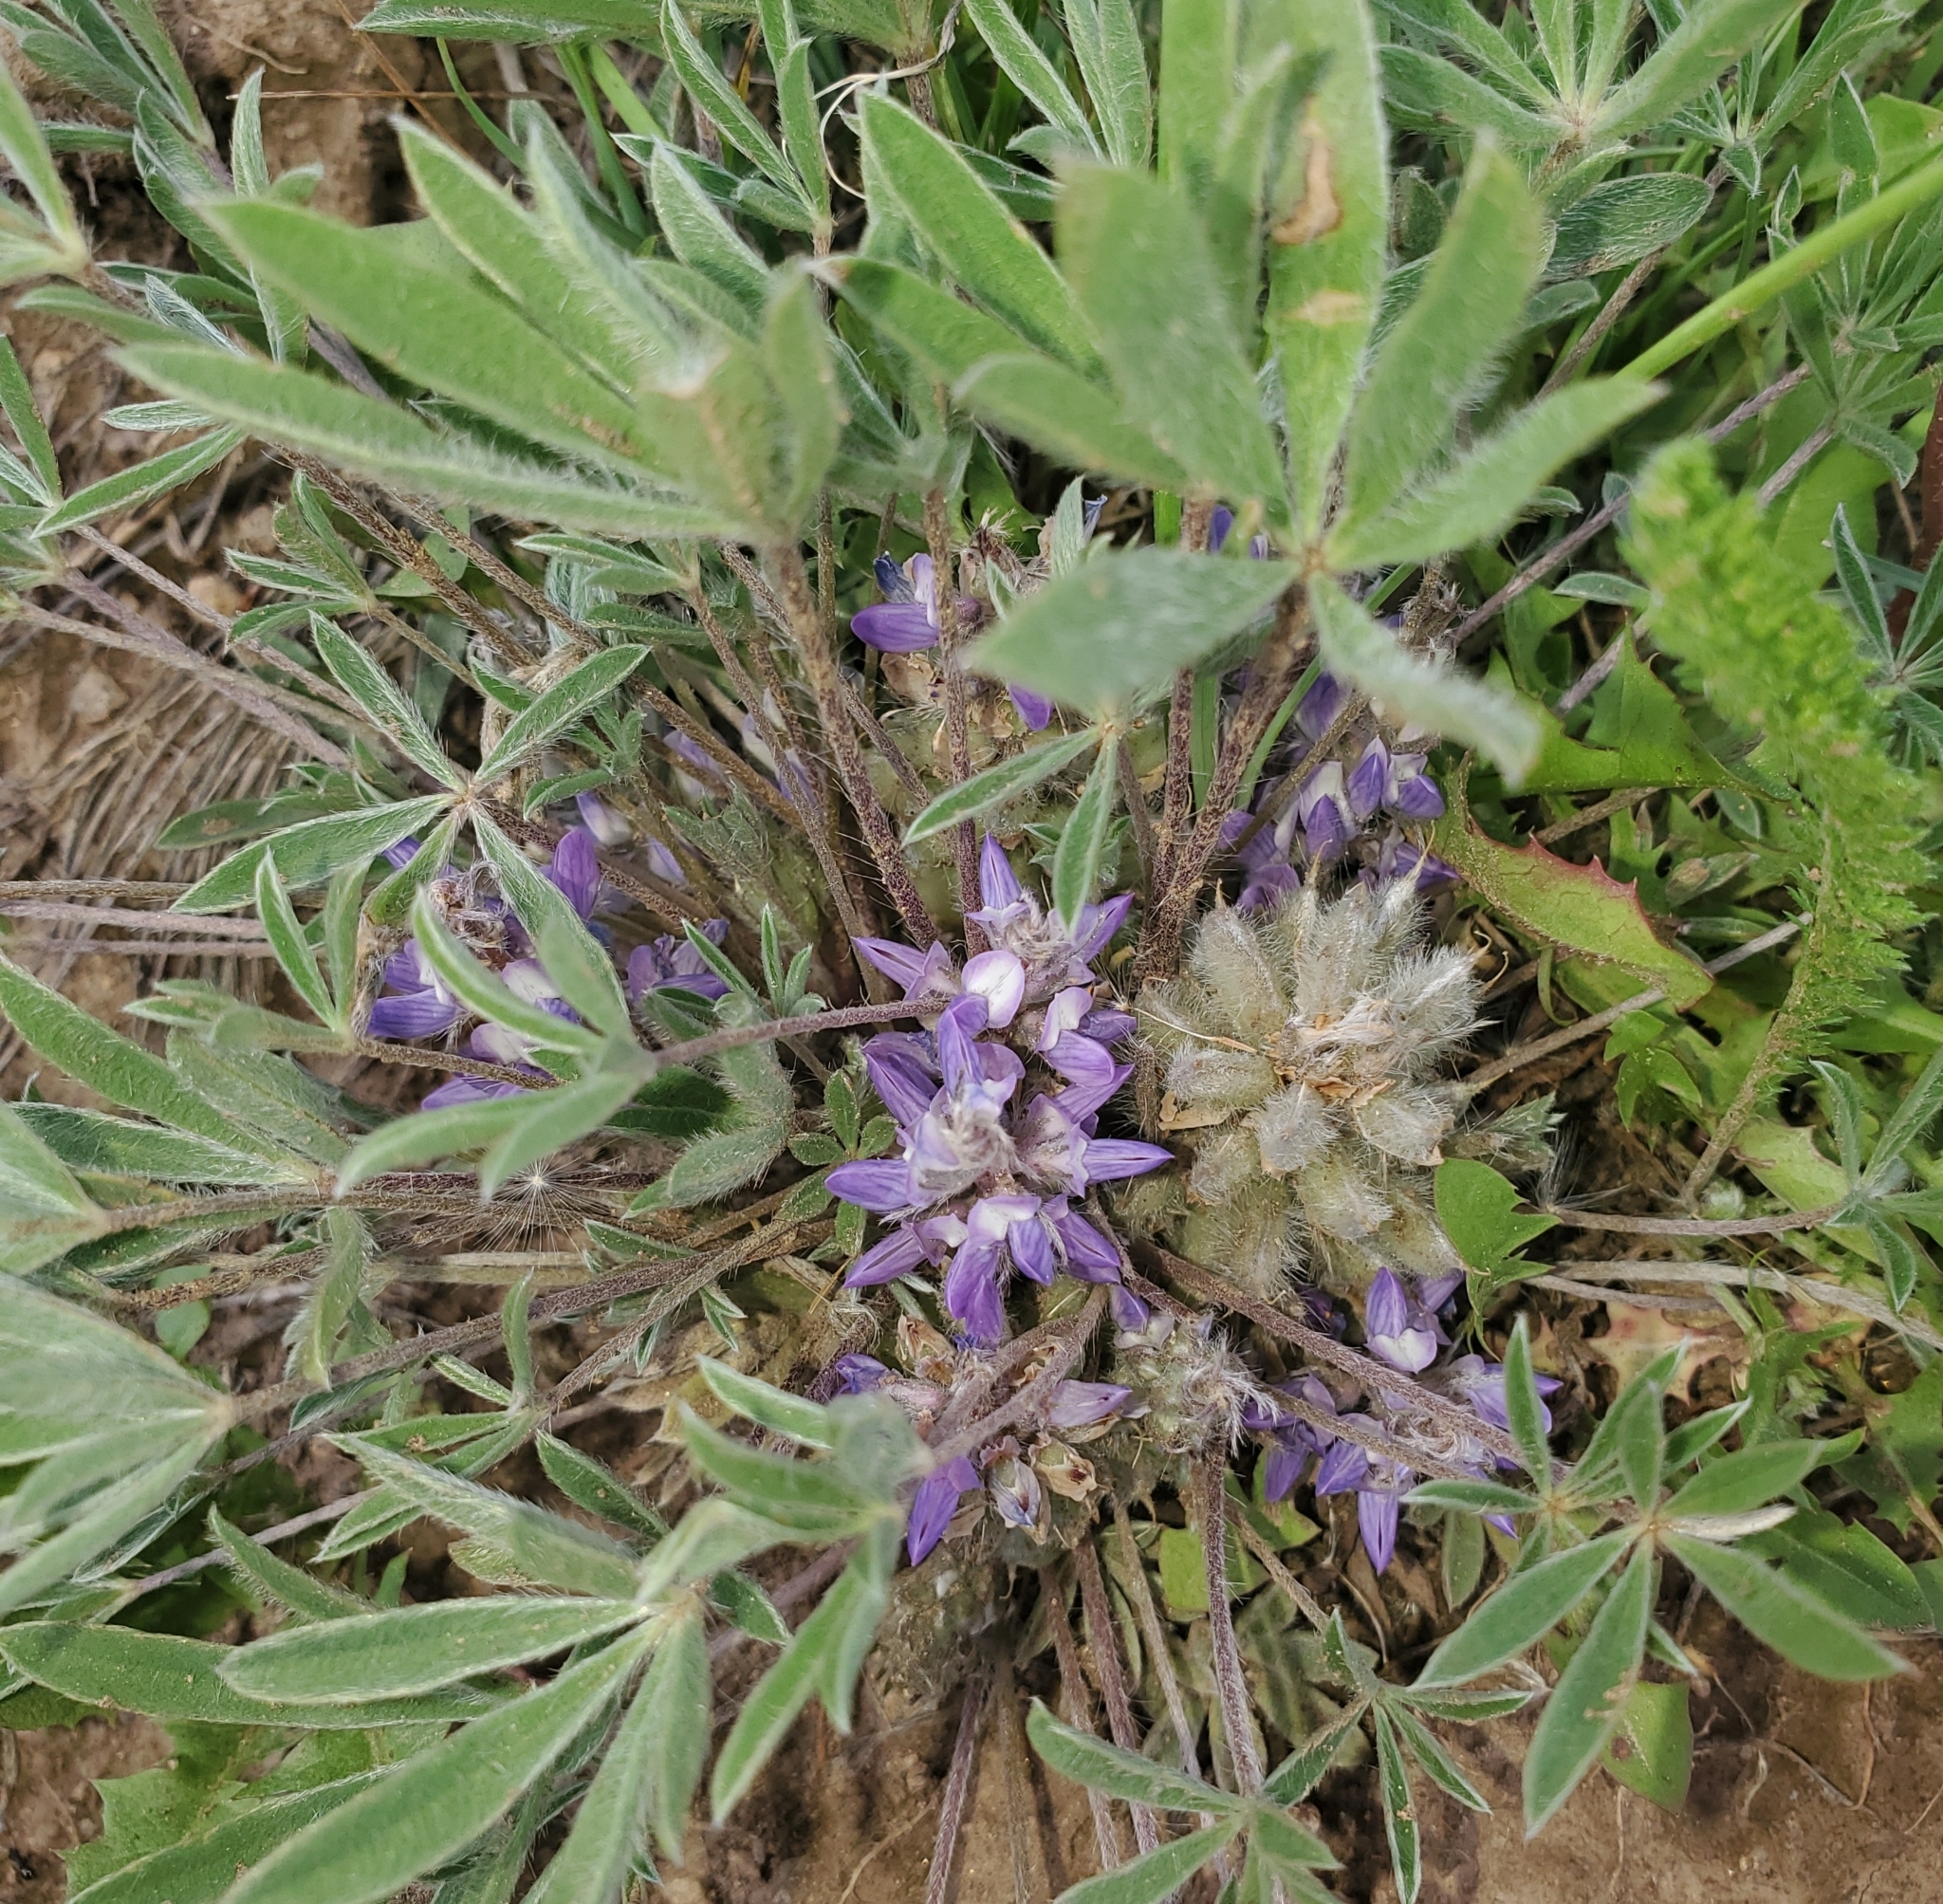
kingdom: Plantae
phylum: Tracheophyta
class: Magnoliopsida
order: Fabales
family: Fabaceae
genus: Lupinus
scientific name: Lupinus lepidus
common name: Prairie lupine
